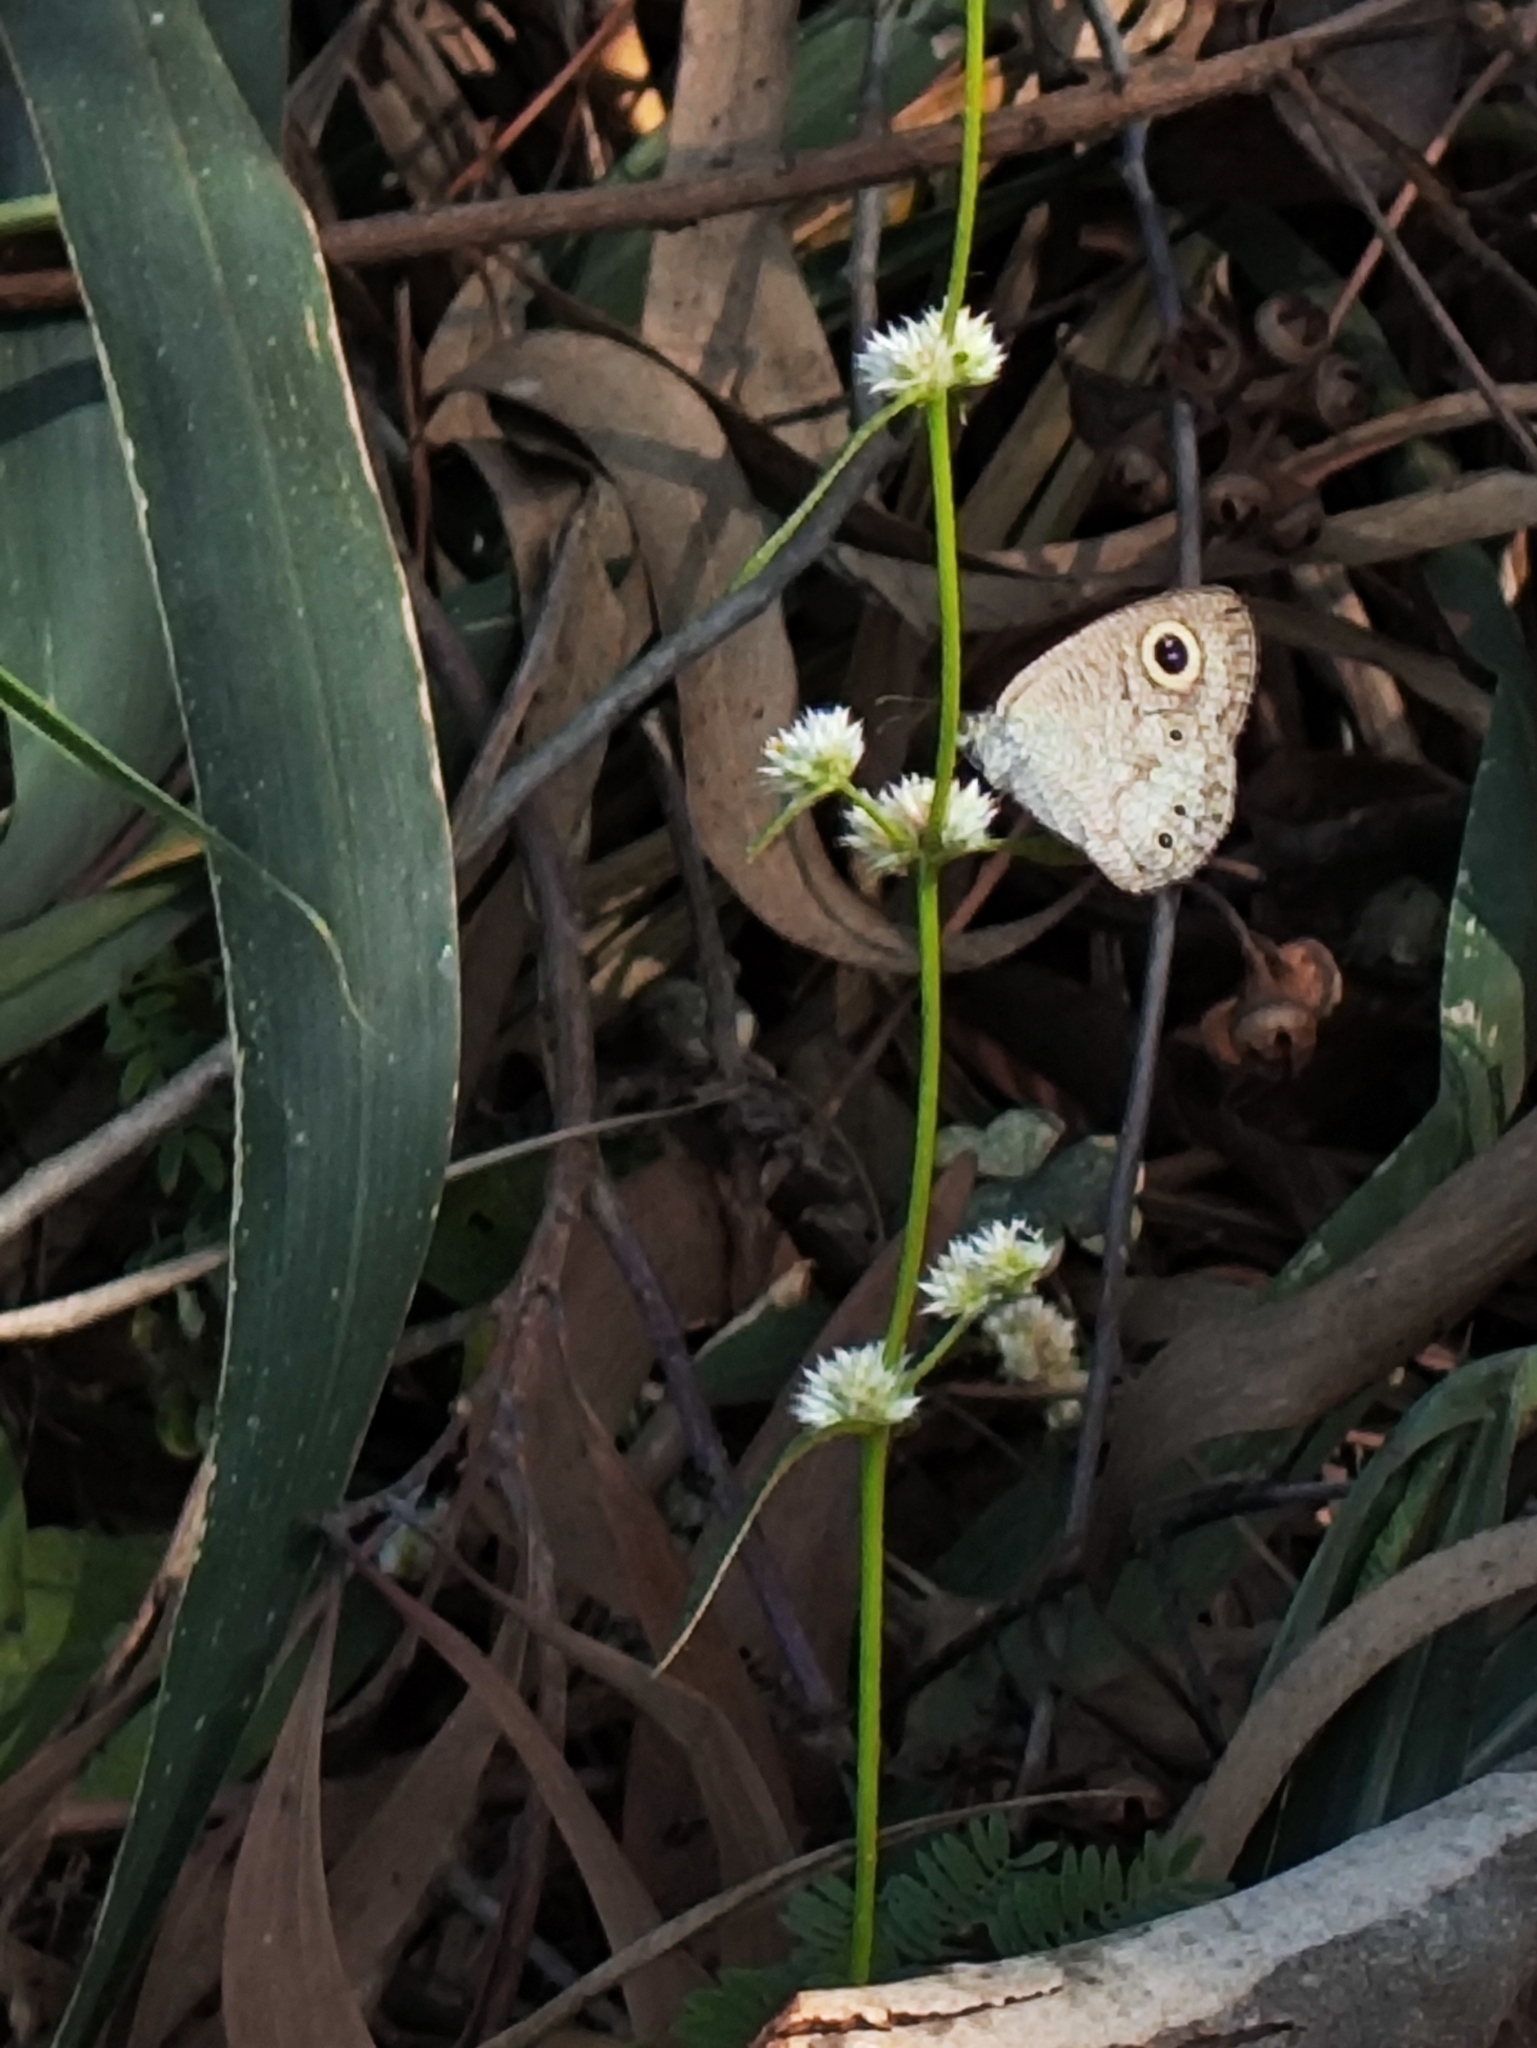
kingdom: Animalia
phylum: Arthropoda
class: Insecta
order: Lepidoptera
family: Nymphalidae
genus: Ypthima
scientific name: Ypthima huebneri
